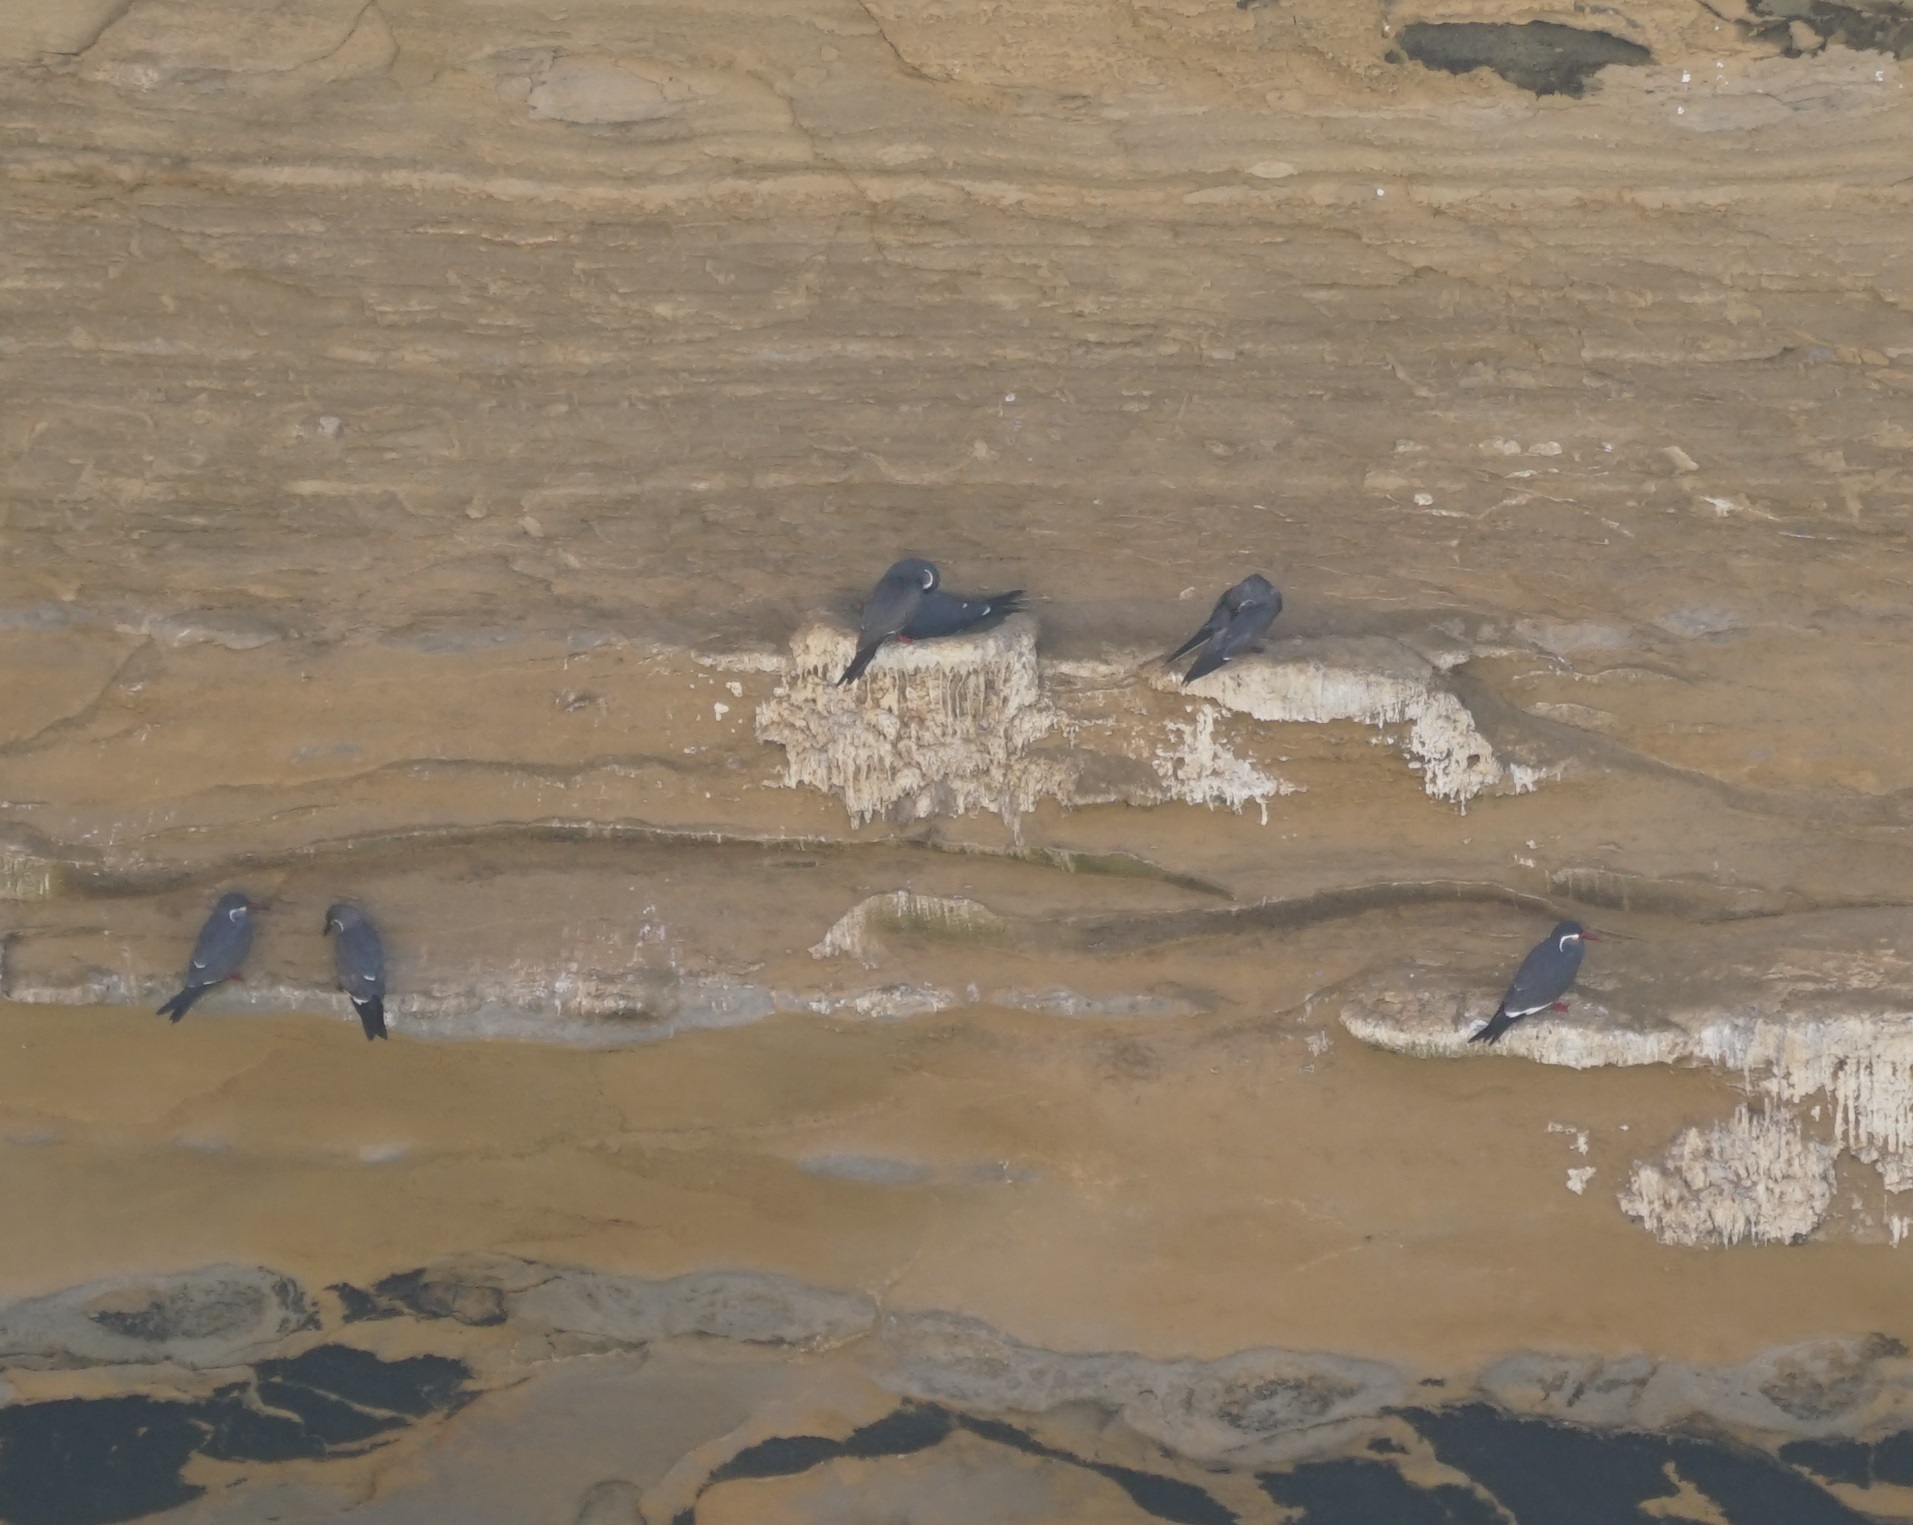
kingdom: Animalia
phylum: Chordata
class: Aves
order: Charadriiformes
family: Laridae
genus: Larosterna
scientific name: Larosterna inca
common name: Inca tern
